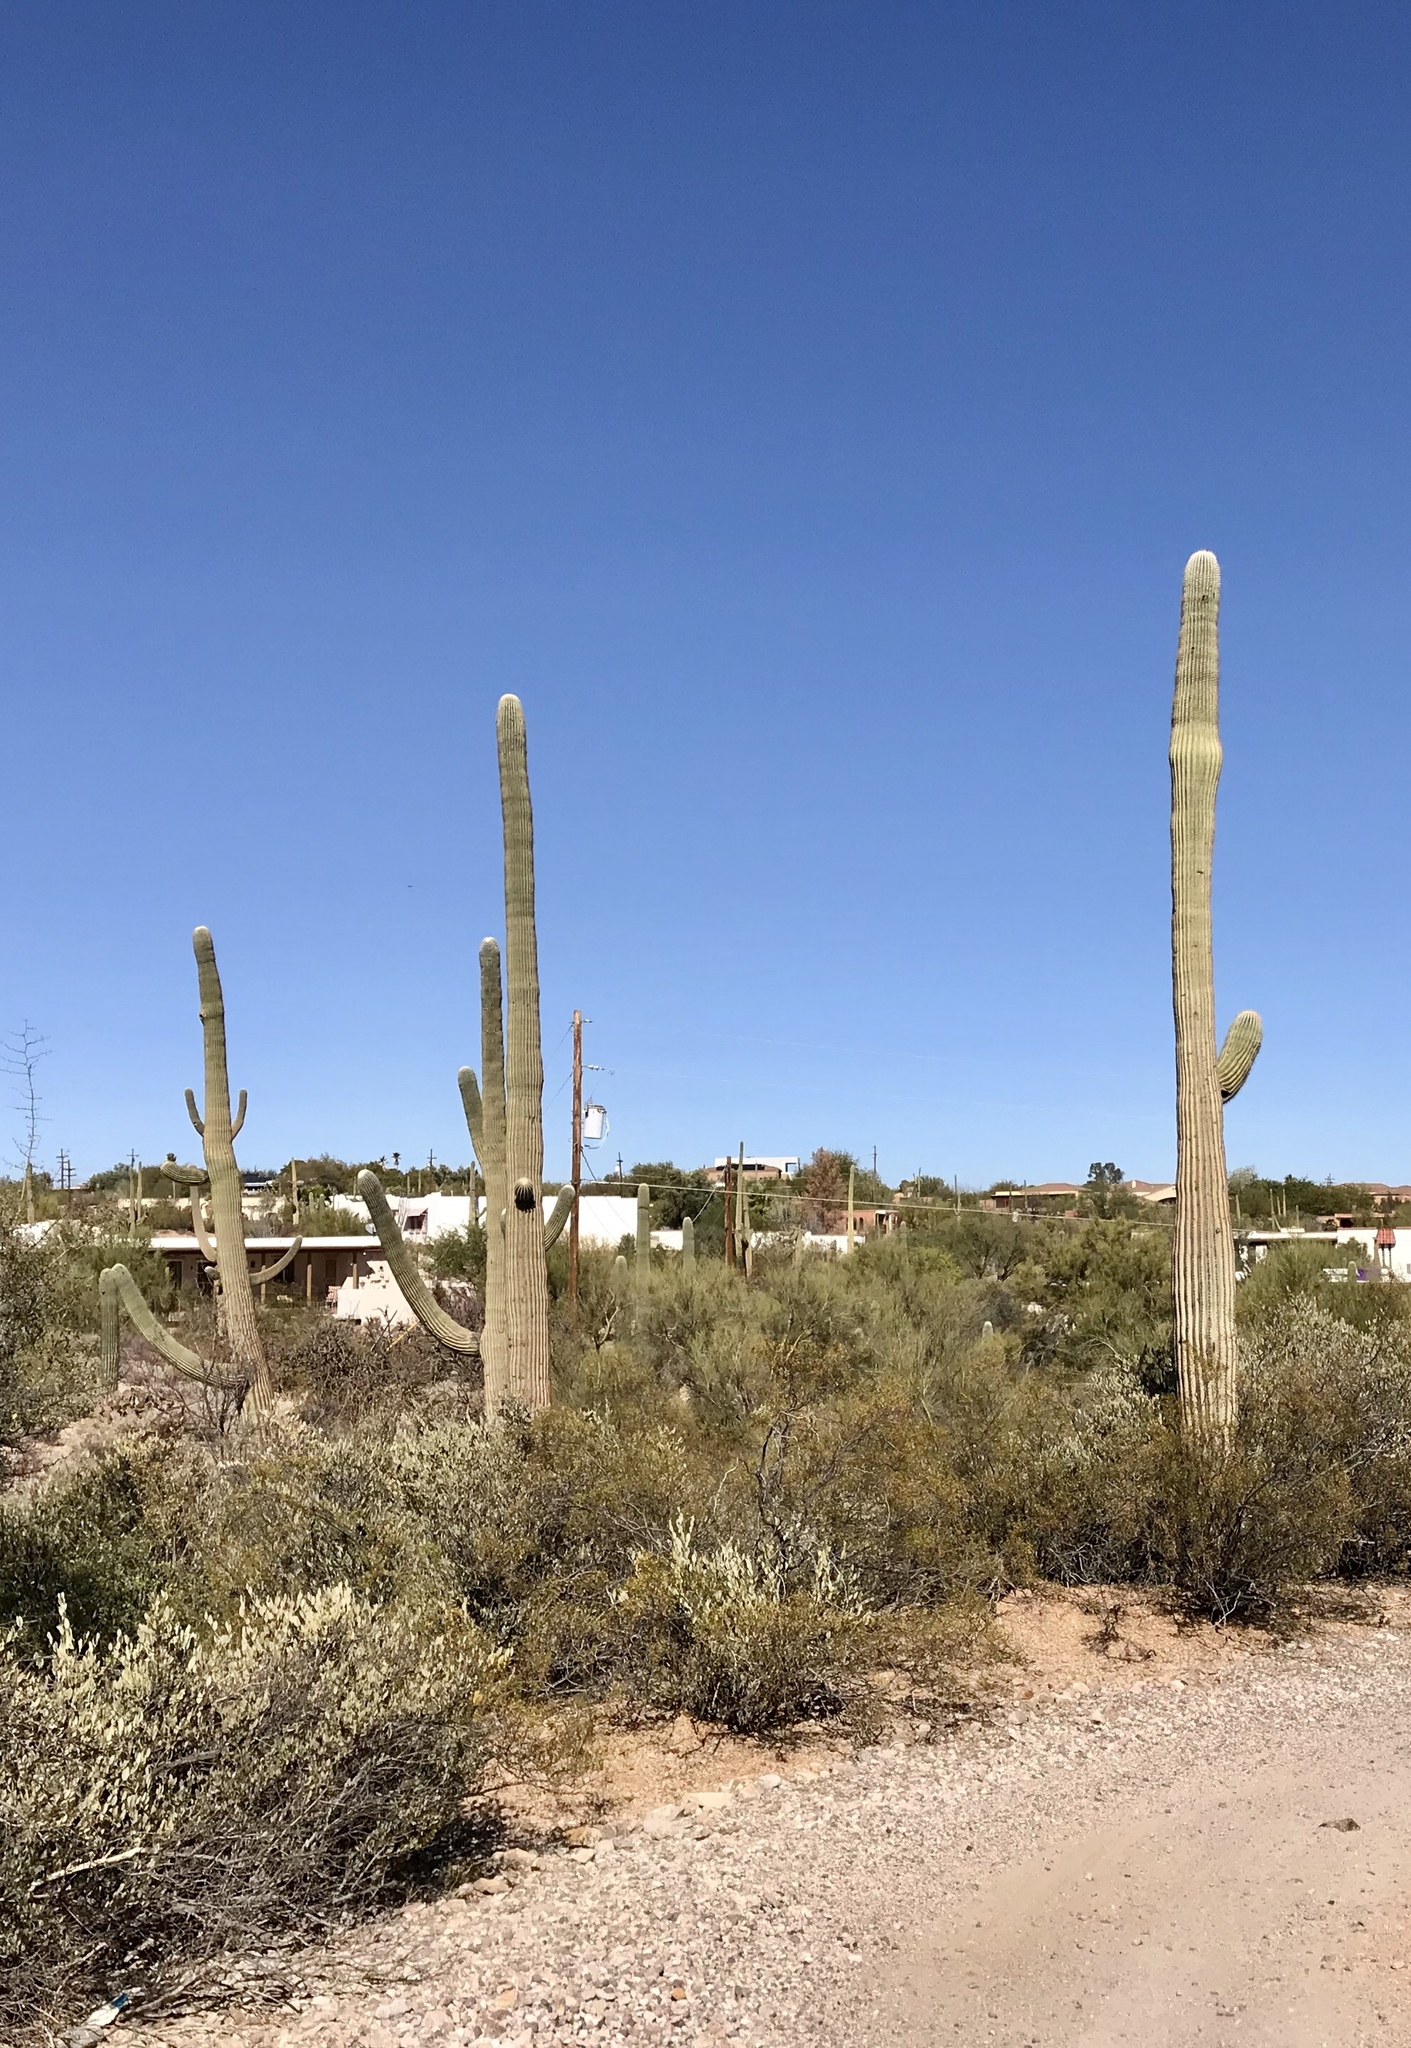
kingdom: Plantae
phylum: Tracheophyta
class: Magnoliopsida
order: Caryophyllales
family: Cactaceae
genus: Carnegiea
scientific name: Carnegiea gigantea
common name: Saguaro
